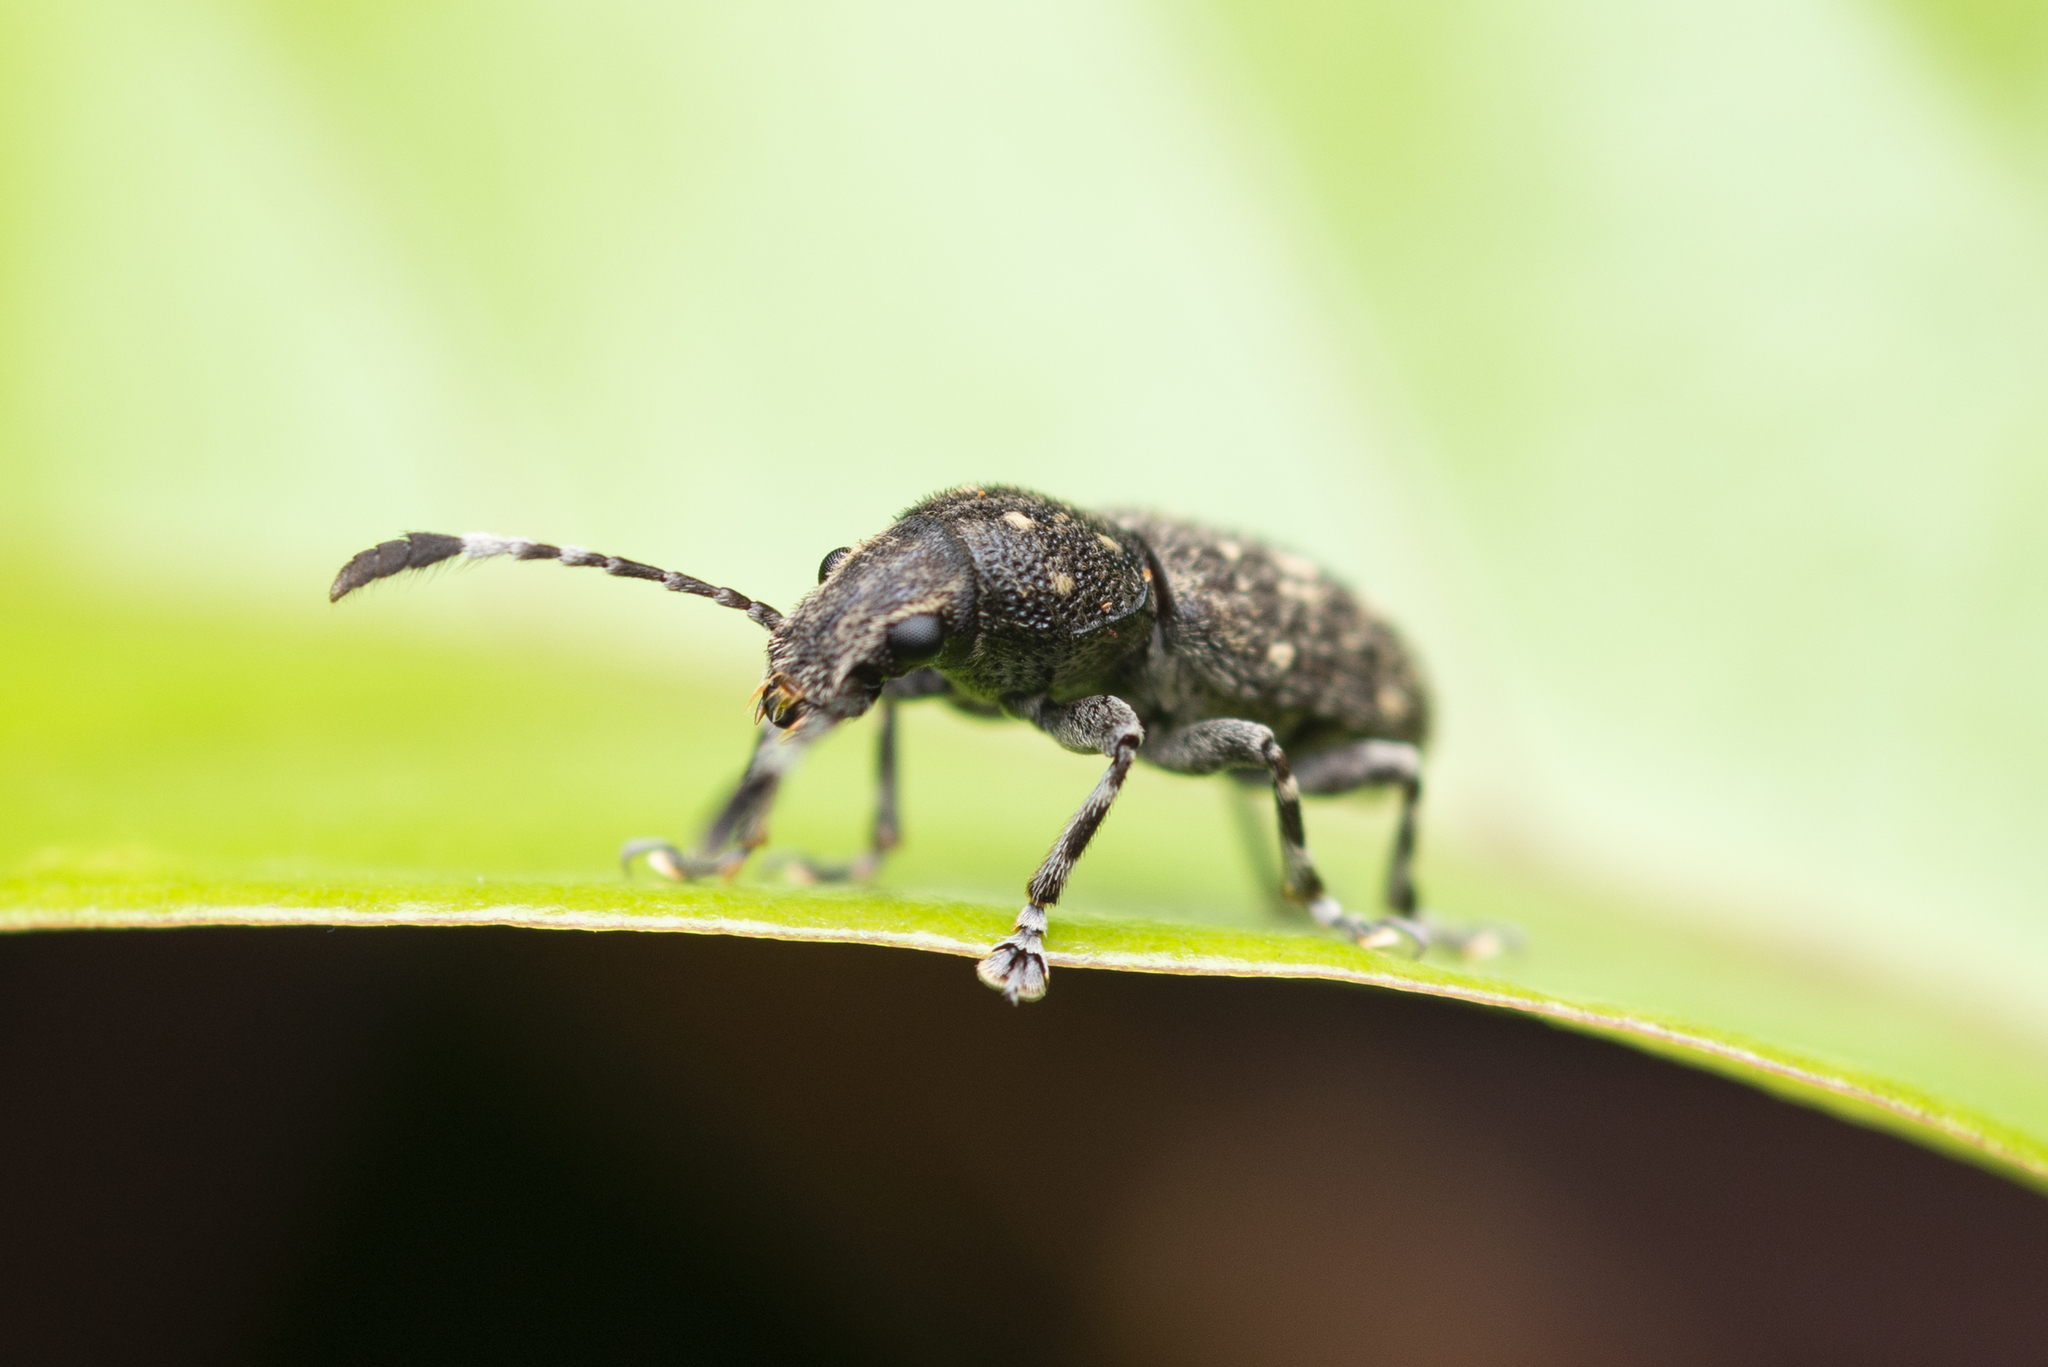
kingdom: Animalia
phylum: Arthropoda
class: Insecta
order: Coleoptera
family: Anthribidae
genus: Eucorynus
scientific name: Eucorynus crassicornis
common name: Fungus weevil
